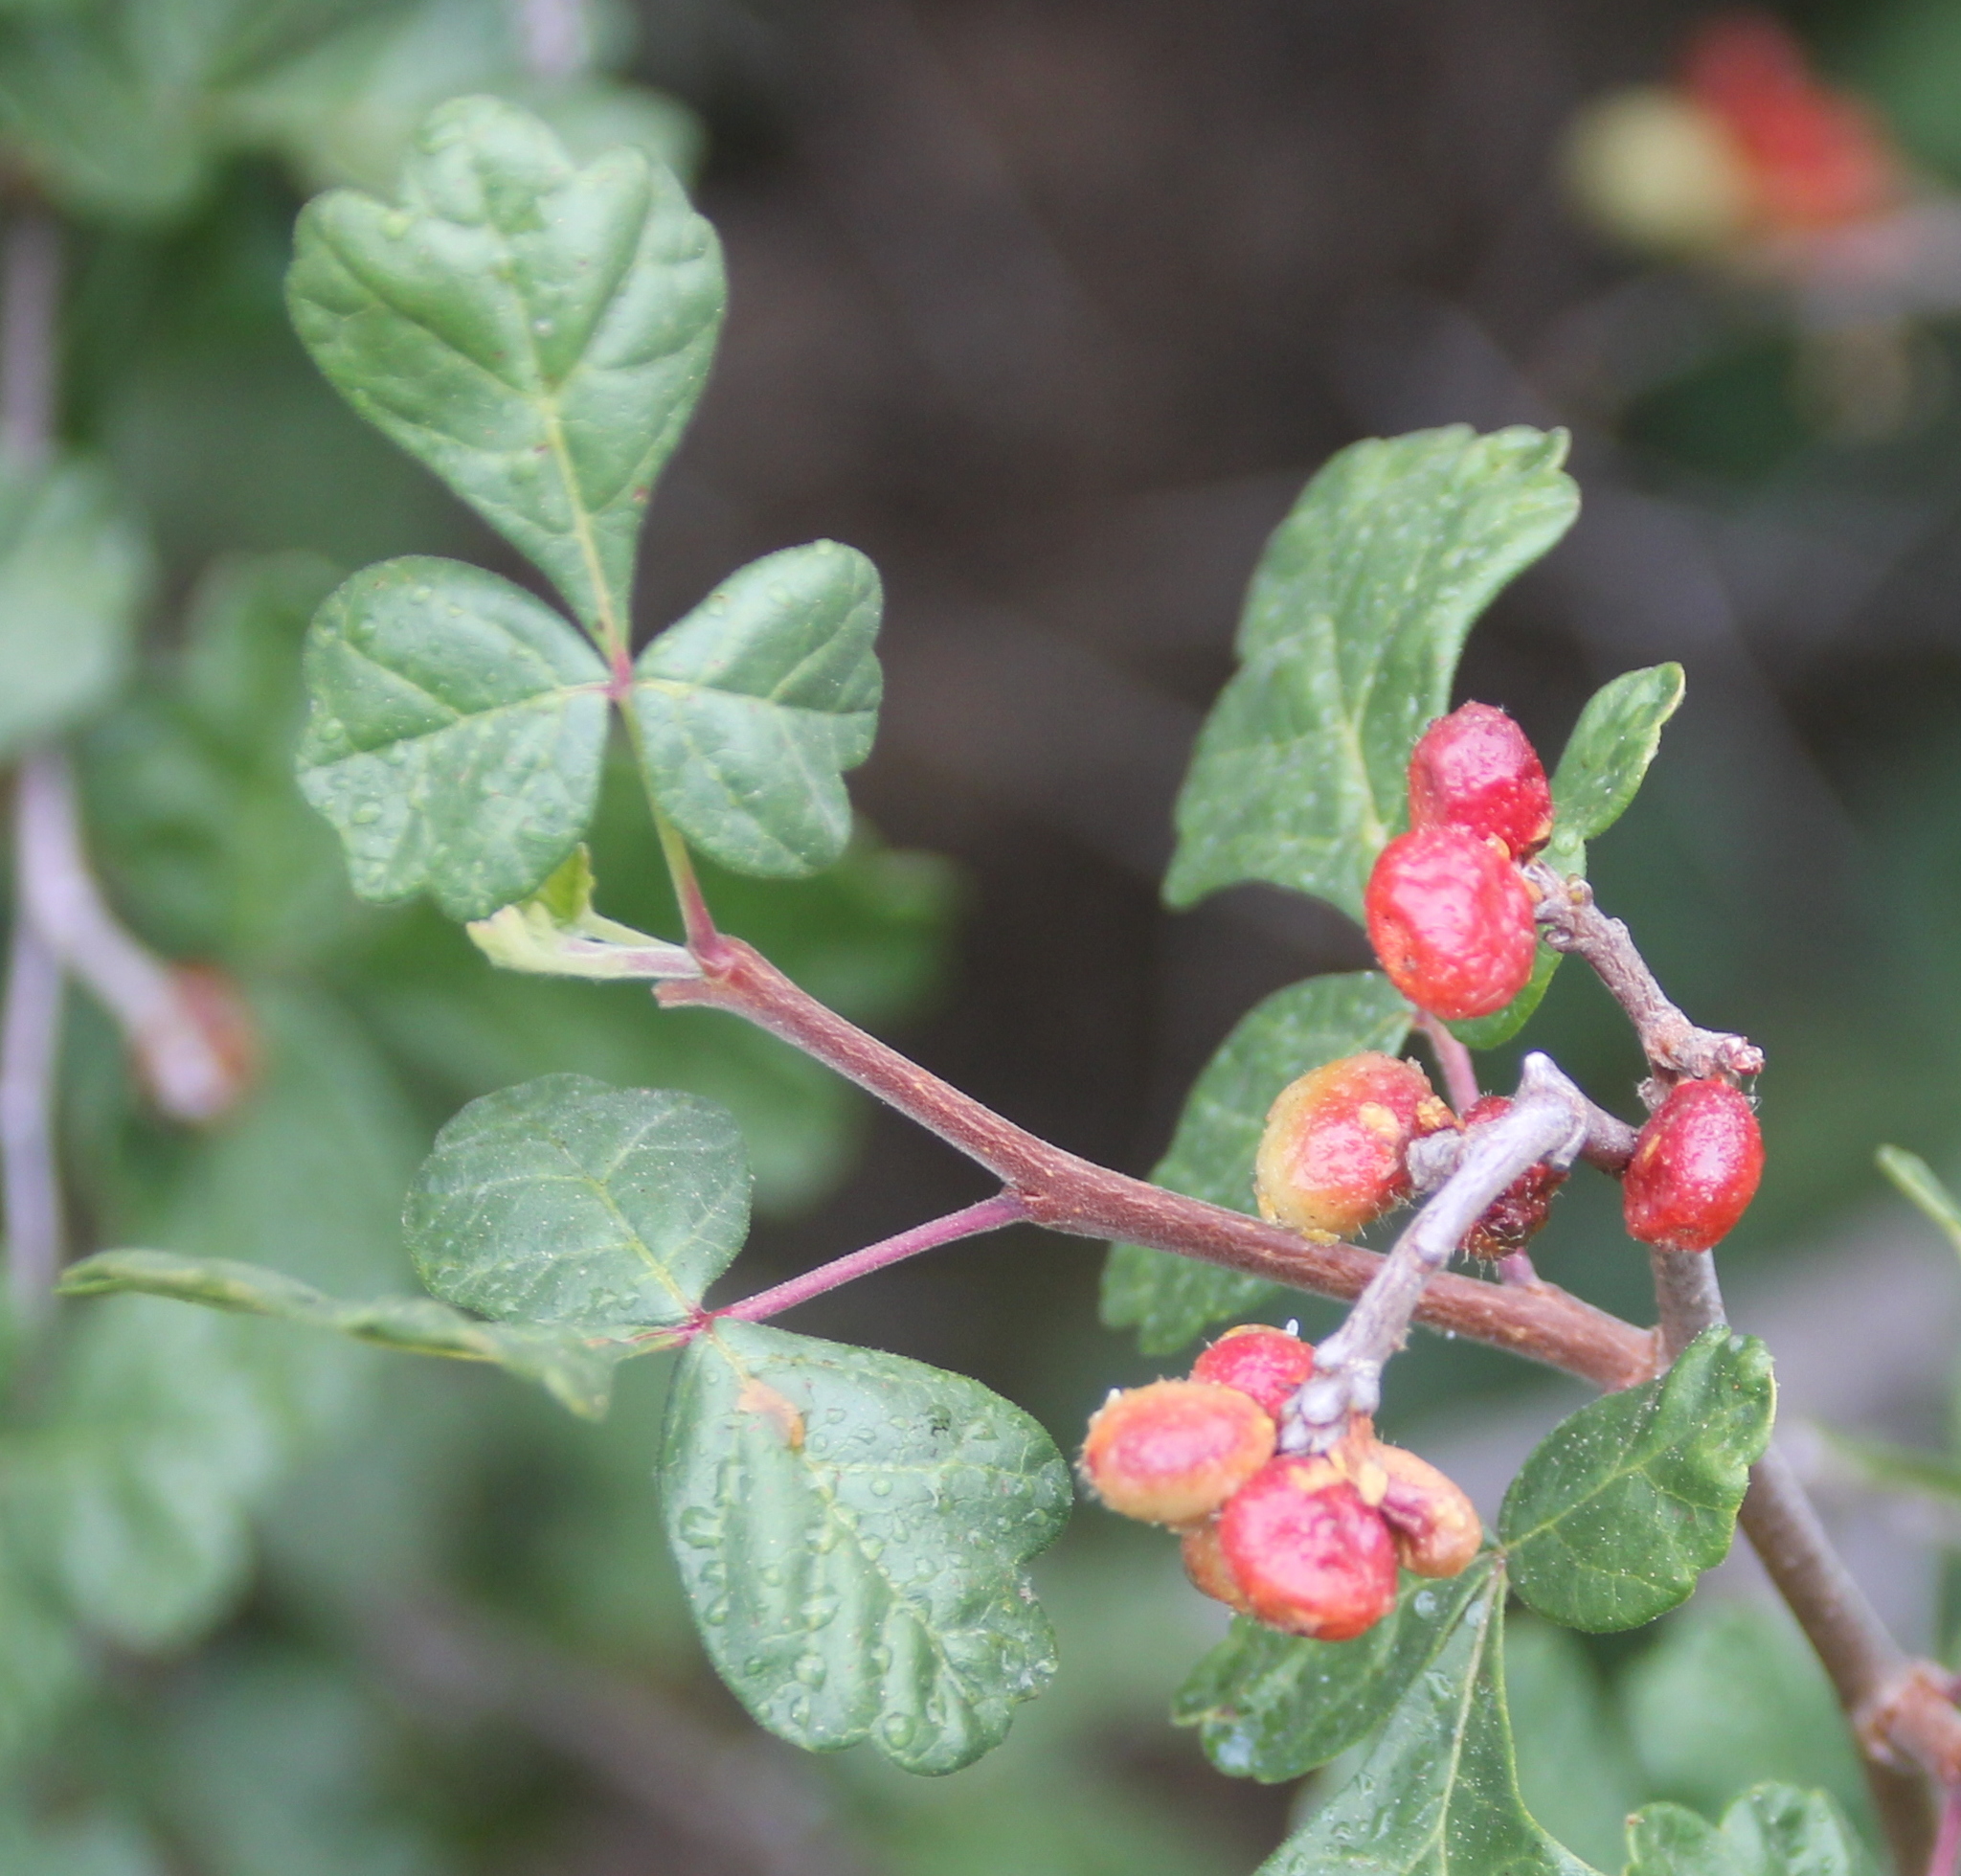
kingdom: Plantae
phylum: Tracheophyta
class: Magnoliopsida
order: Sapindales
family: Anacardiaceae
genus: Rhus
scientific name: Rhus aromatica
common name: Aromatic sumac
